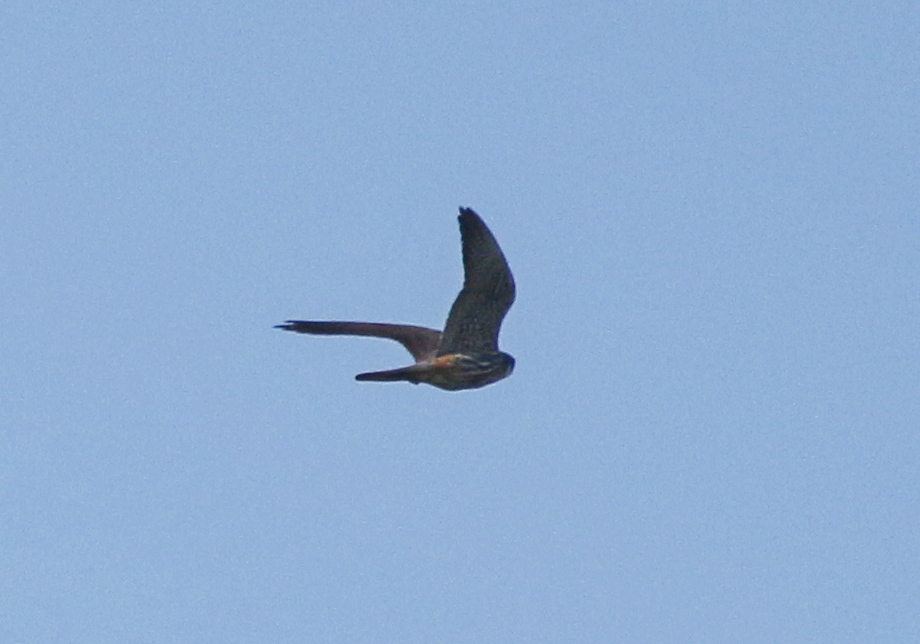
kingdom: Animalia
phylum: Chordata
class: Aves
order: Falconiformes
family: Falconidae
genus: Falco
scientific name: Falco subbuteo
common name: Eurasian hobby
